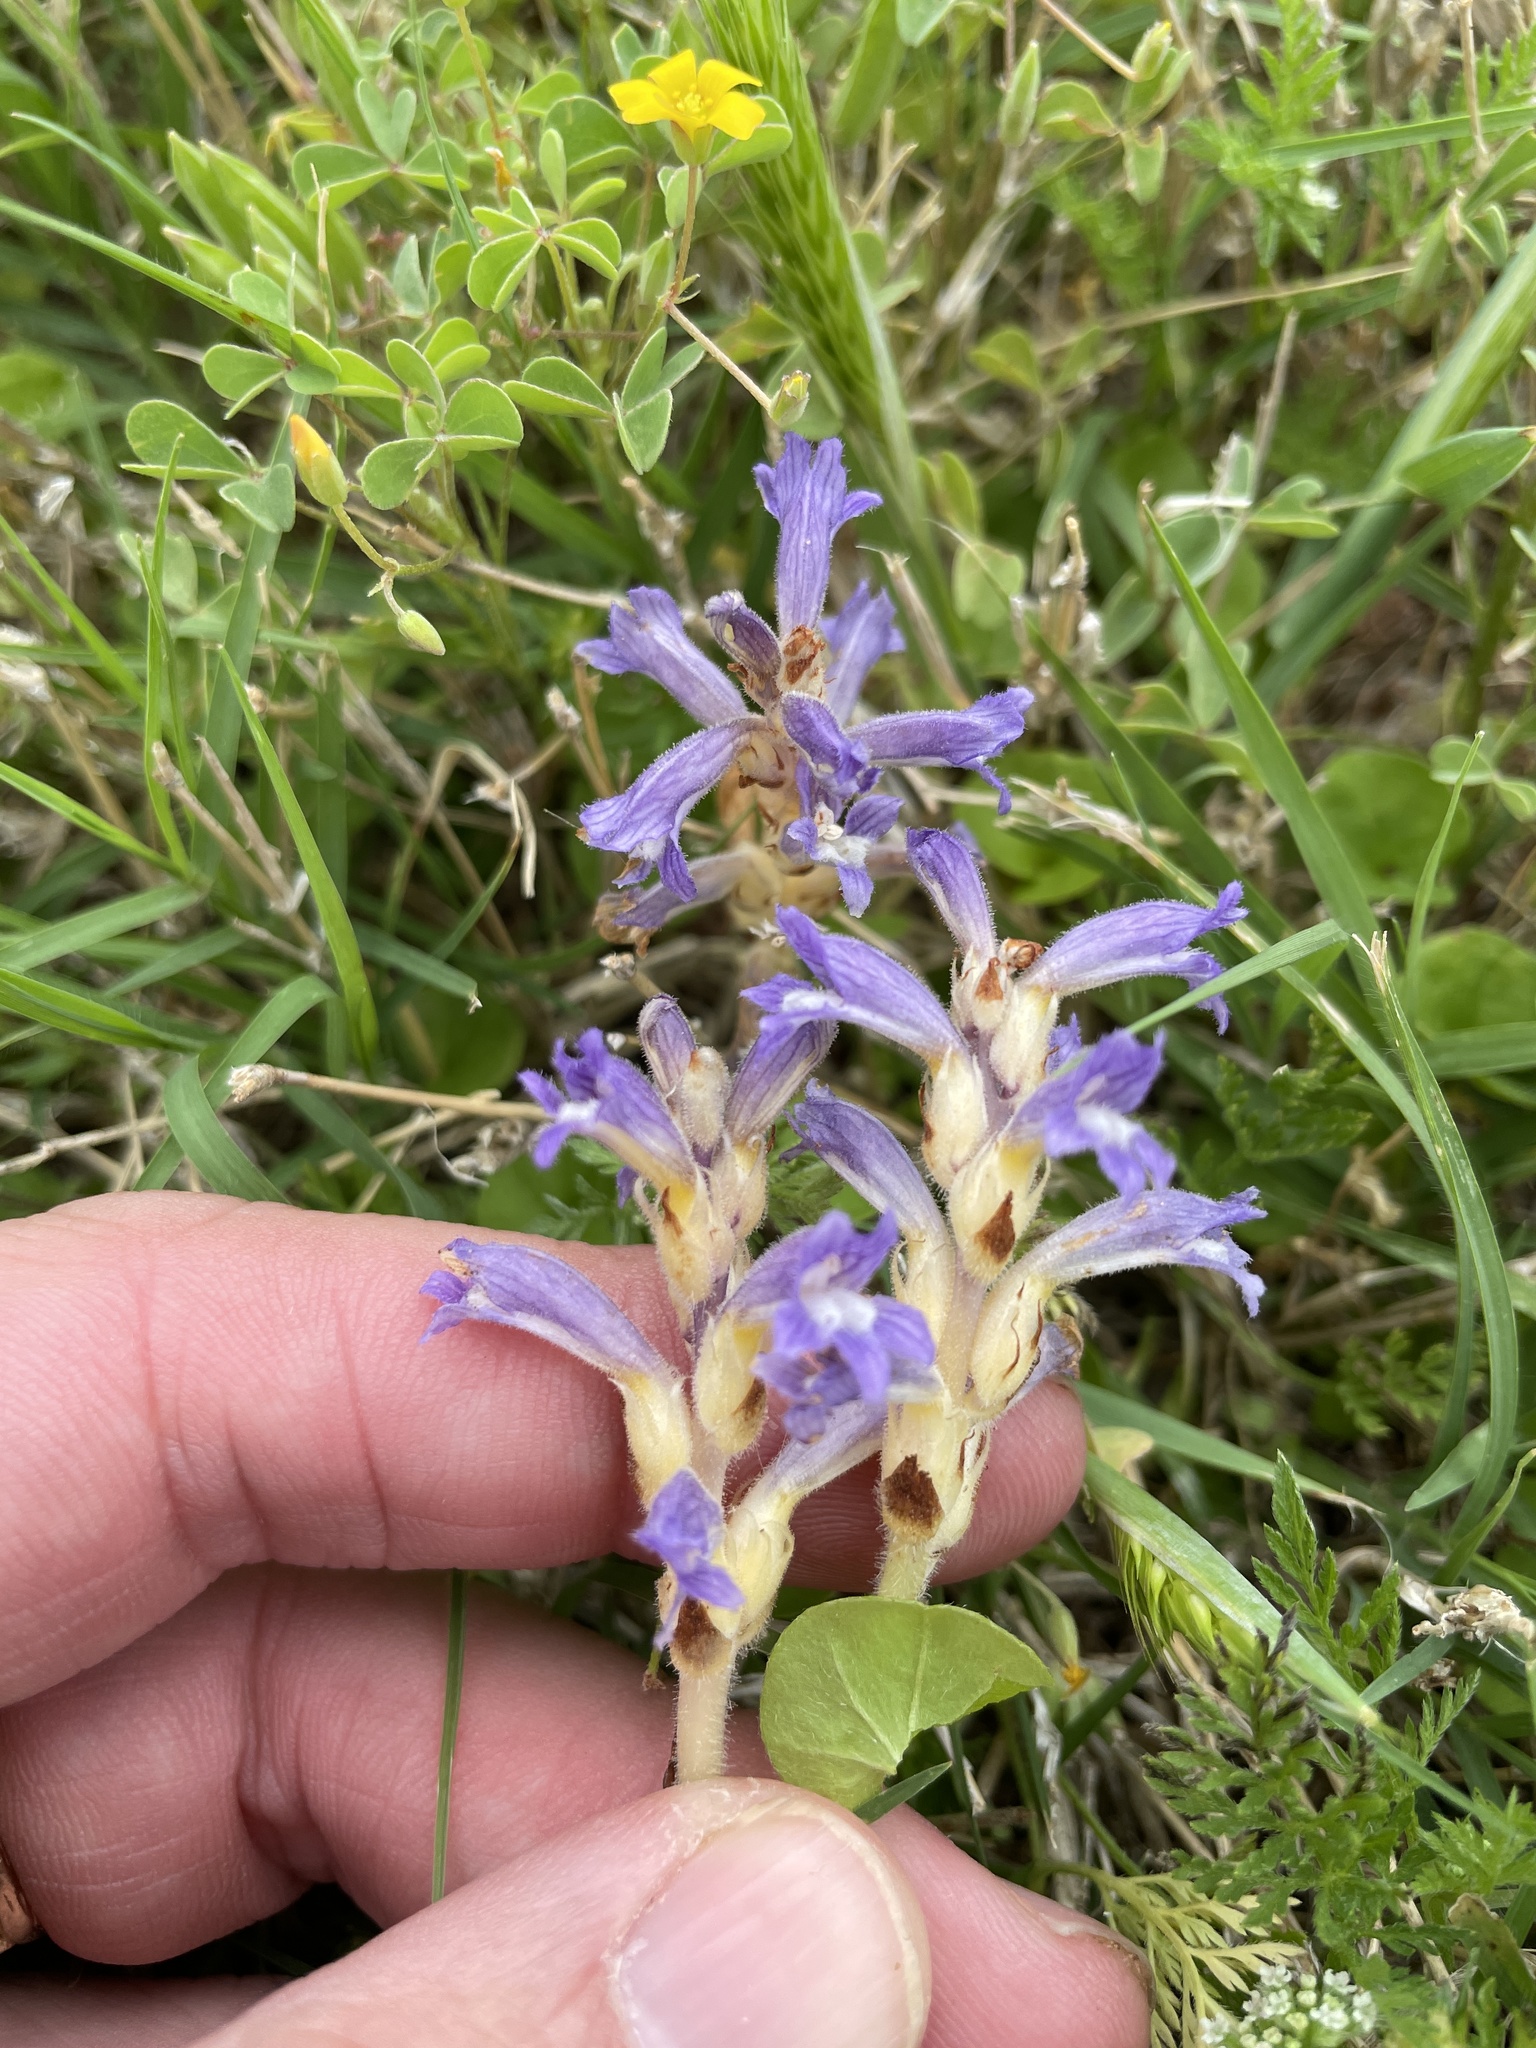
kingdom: Plantae
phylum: Tracheophyta
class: Magnoliopsida
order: Lamiales
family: Orobanchaceae
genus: Phelipanche
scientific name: Phelipanche mutelii
